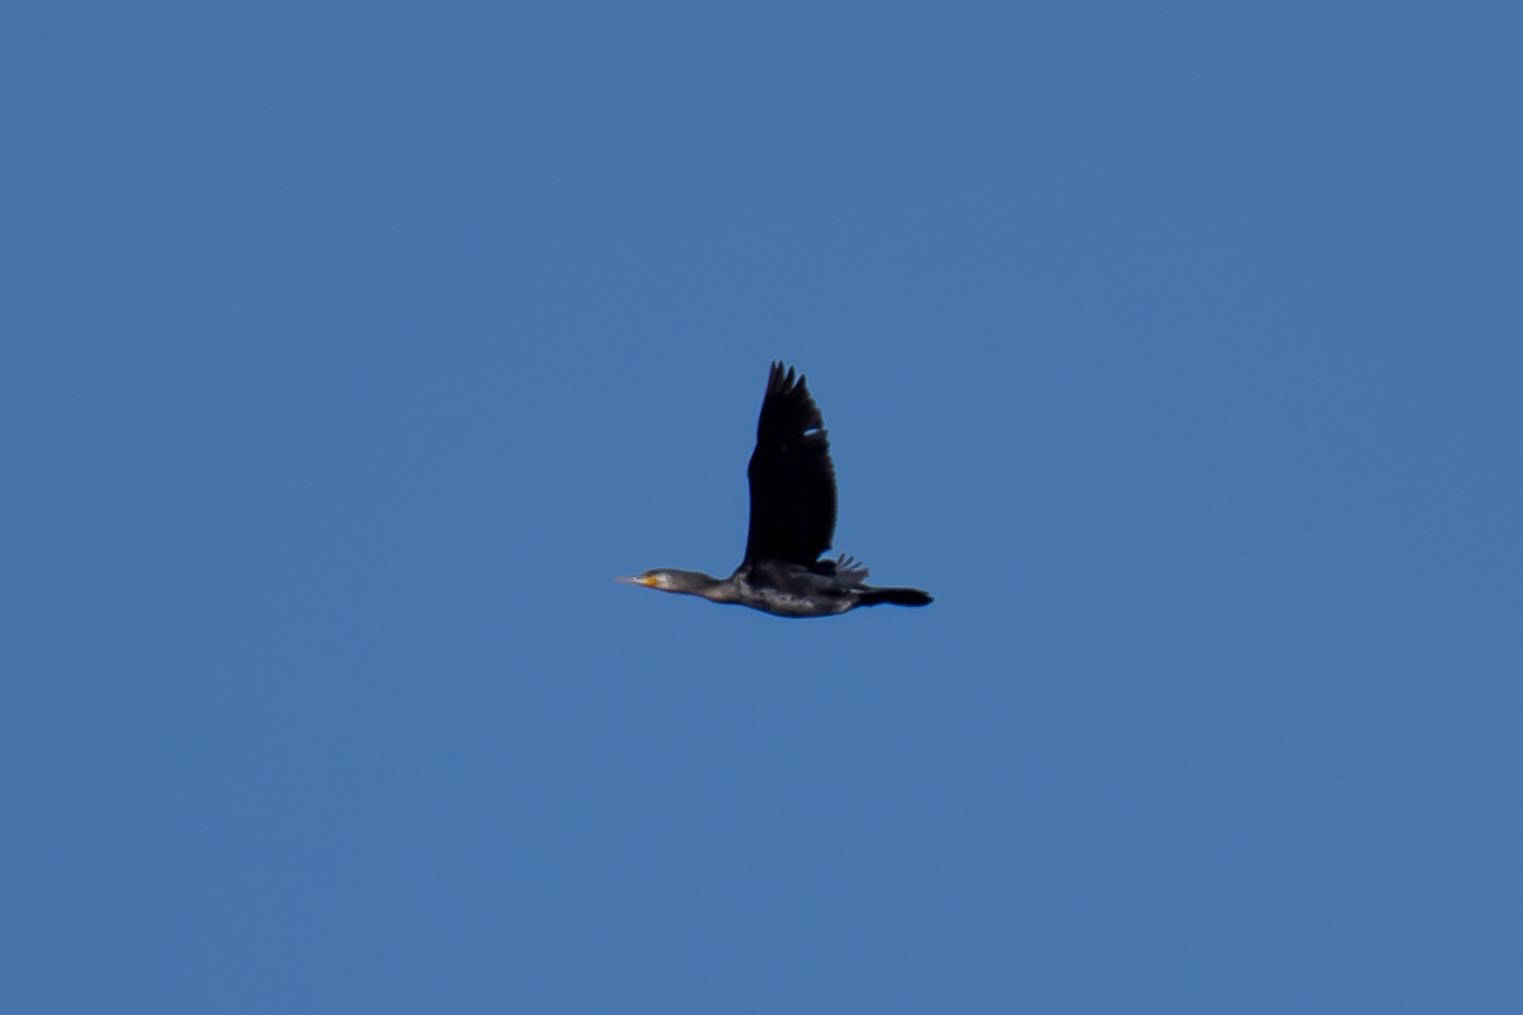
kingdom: Animalia
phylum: Chordata
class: Aves
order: Suliformes
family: Phalacrocoracidae
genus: Phalacrocorax
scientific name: Phalacrocorax carbo
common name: Great cormorant
